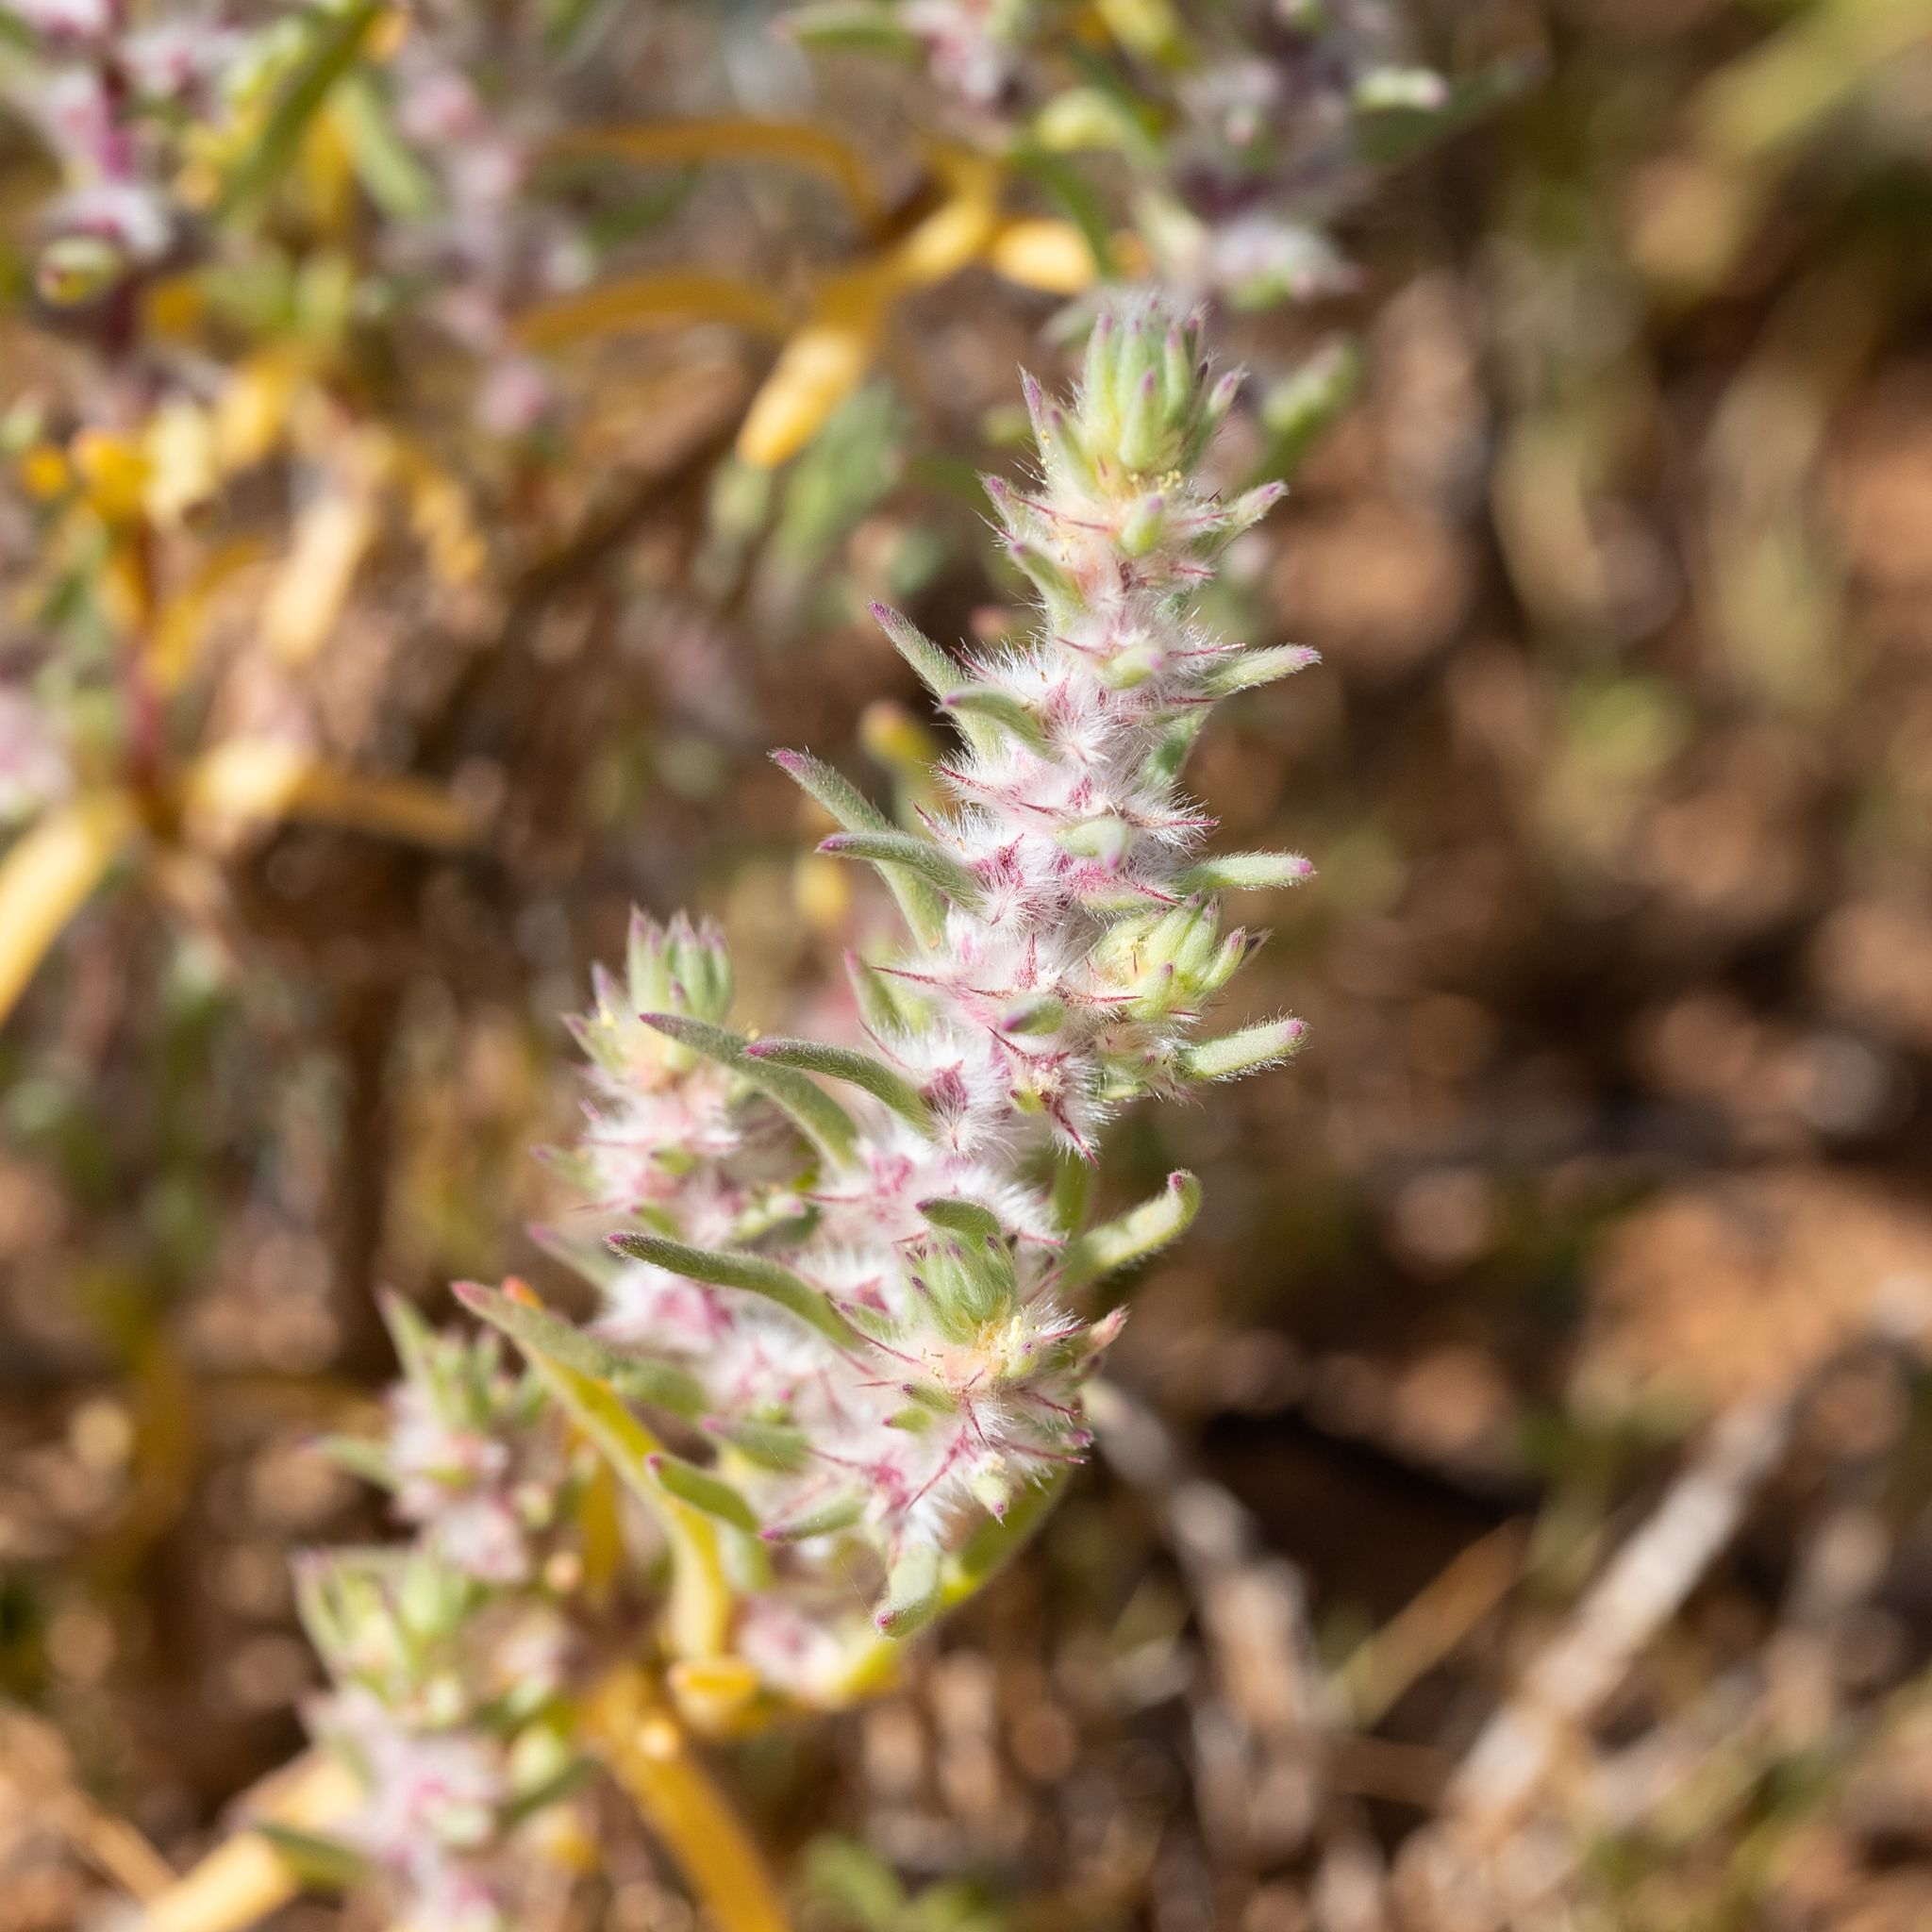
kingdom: Plantae
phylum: Tracheophyta
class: Magnoliopsida
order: Caryophyllales
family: Amaranthaceae
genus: Sclerolaena
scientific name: Sclerolaena lanicuspis
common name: Copperbur
